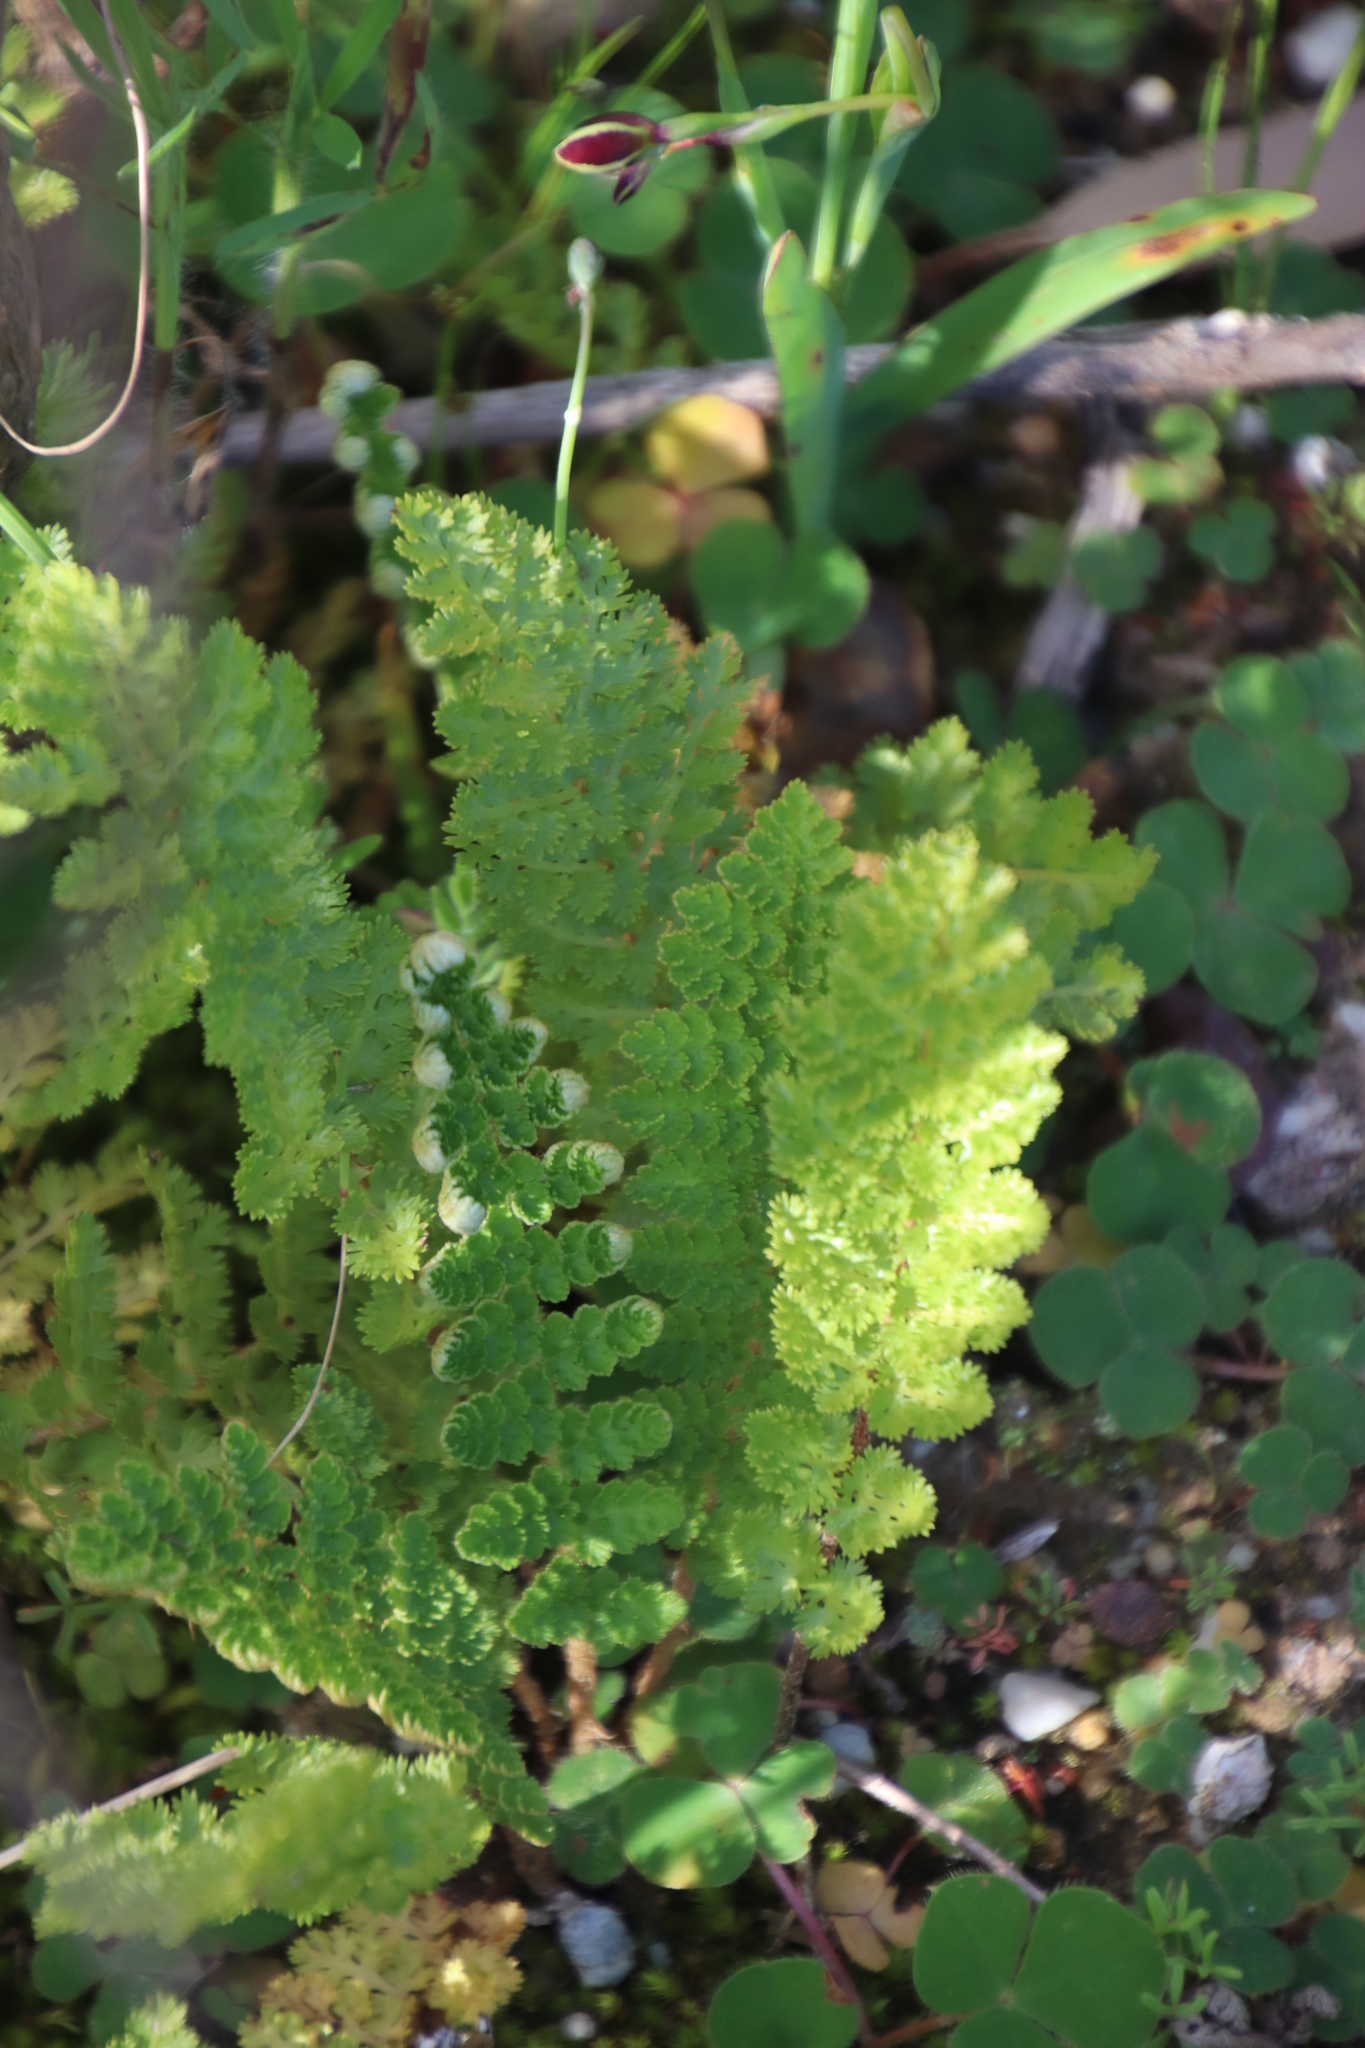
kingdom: Plantae
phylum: Tracheophyta
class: Polypodiopsida
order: Schizaeales
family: Anemiaceae
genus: Anemia
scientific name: Anemia caffrorum
